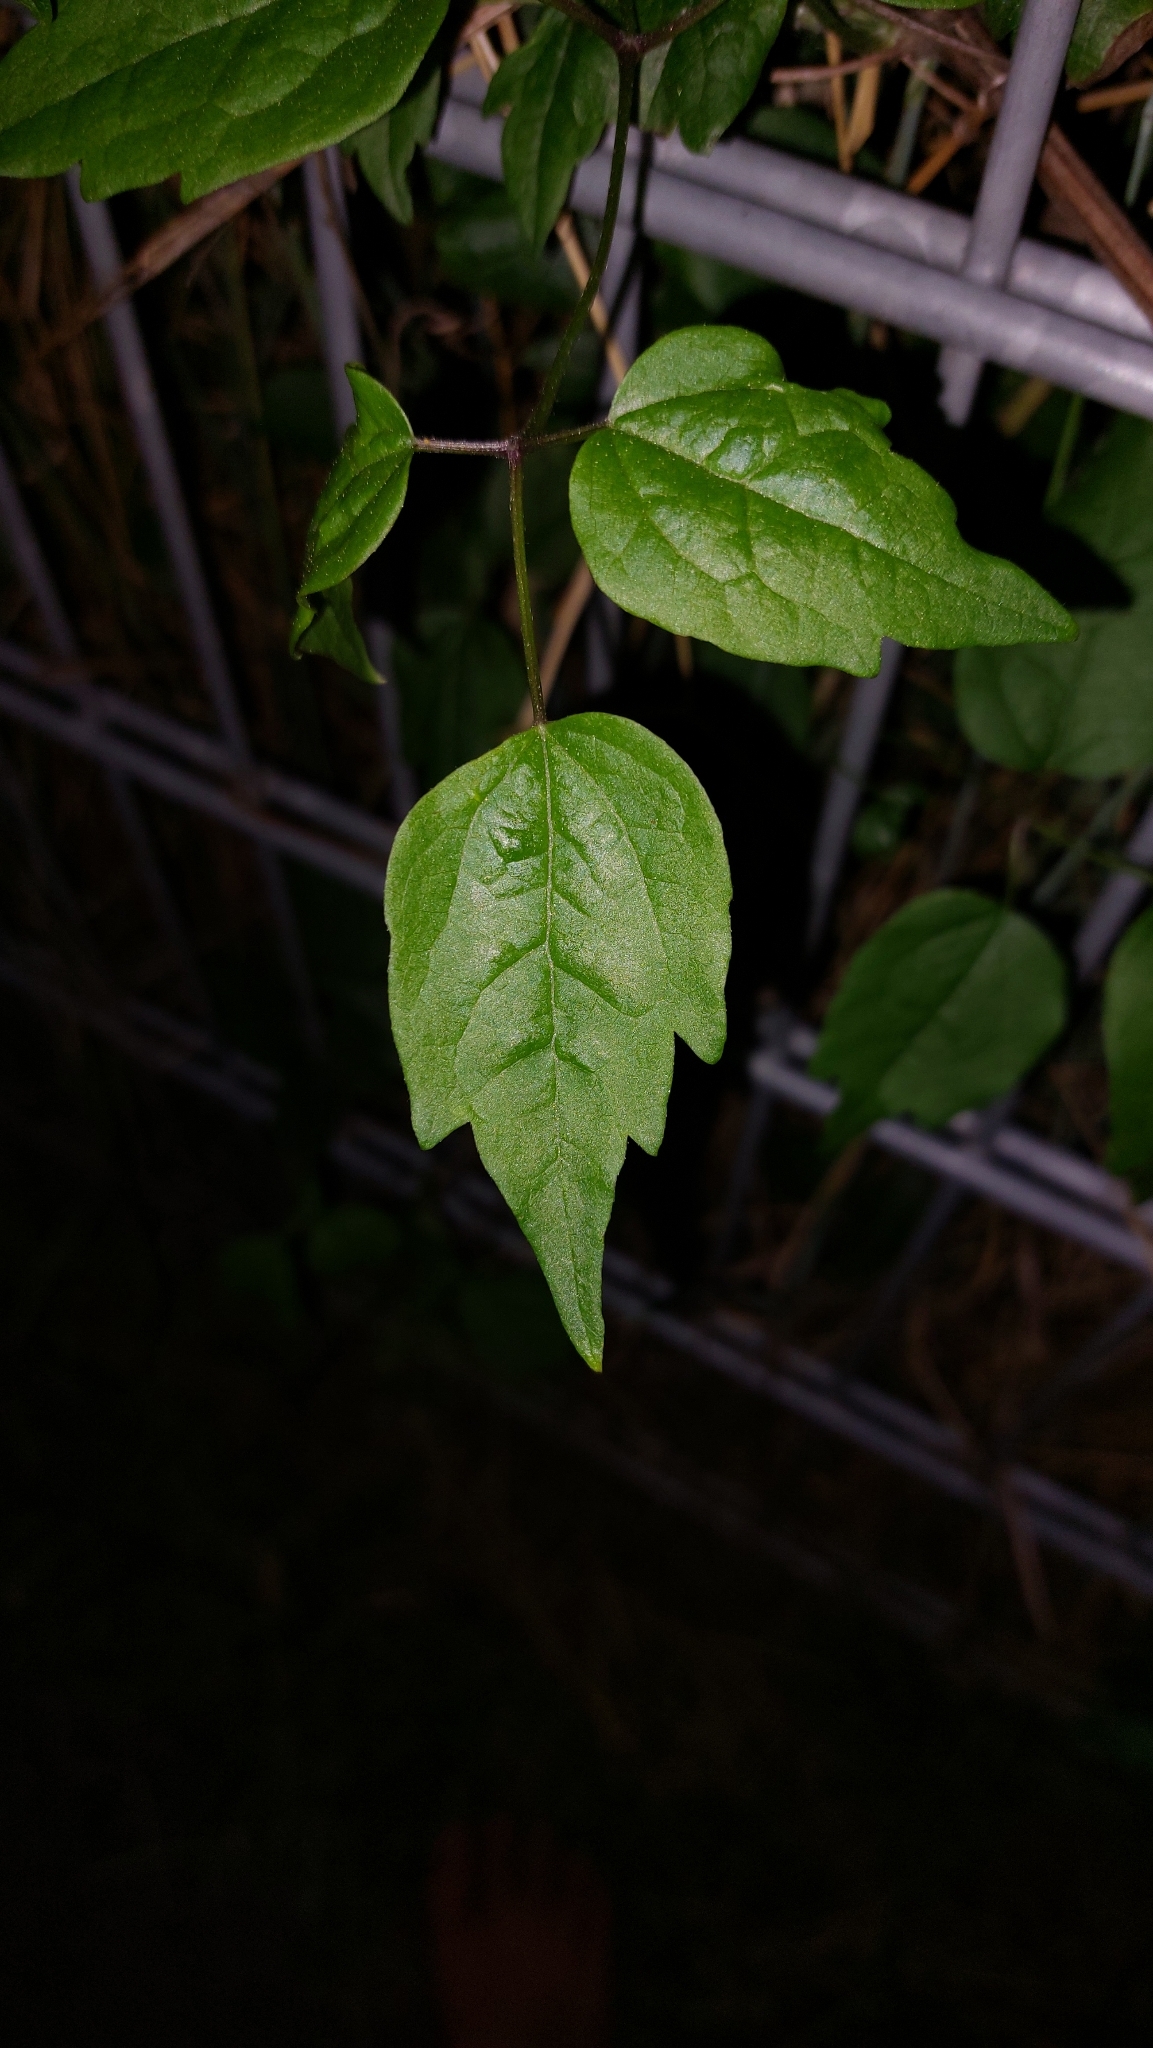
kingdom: Plantae
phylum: Tracheophyta
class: Magnoliopsida
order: Ranunculales
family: Ranunculaceae
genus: Clematis
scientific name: Clematis vitalba
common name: Evergreen clematis
